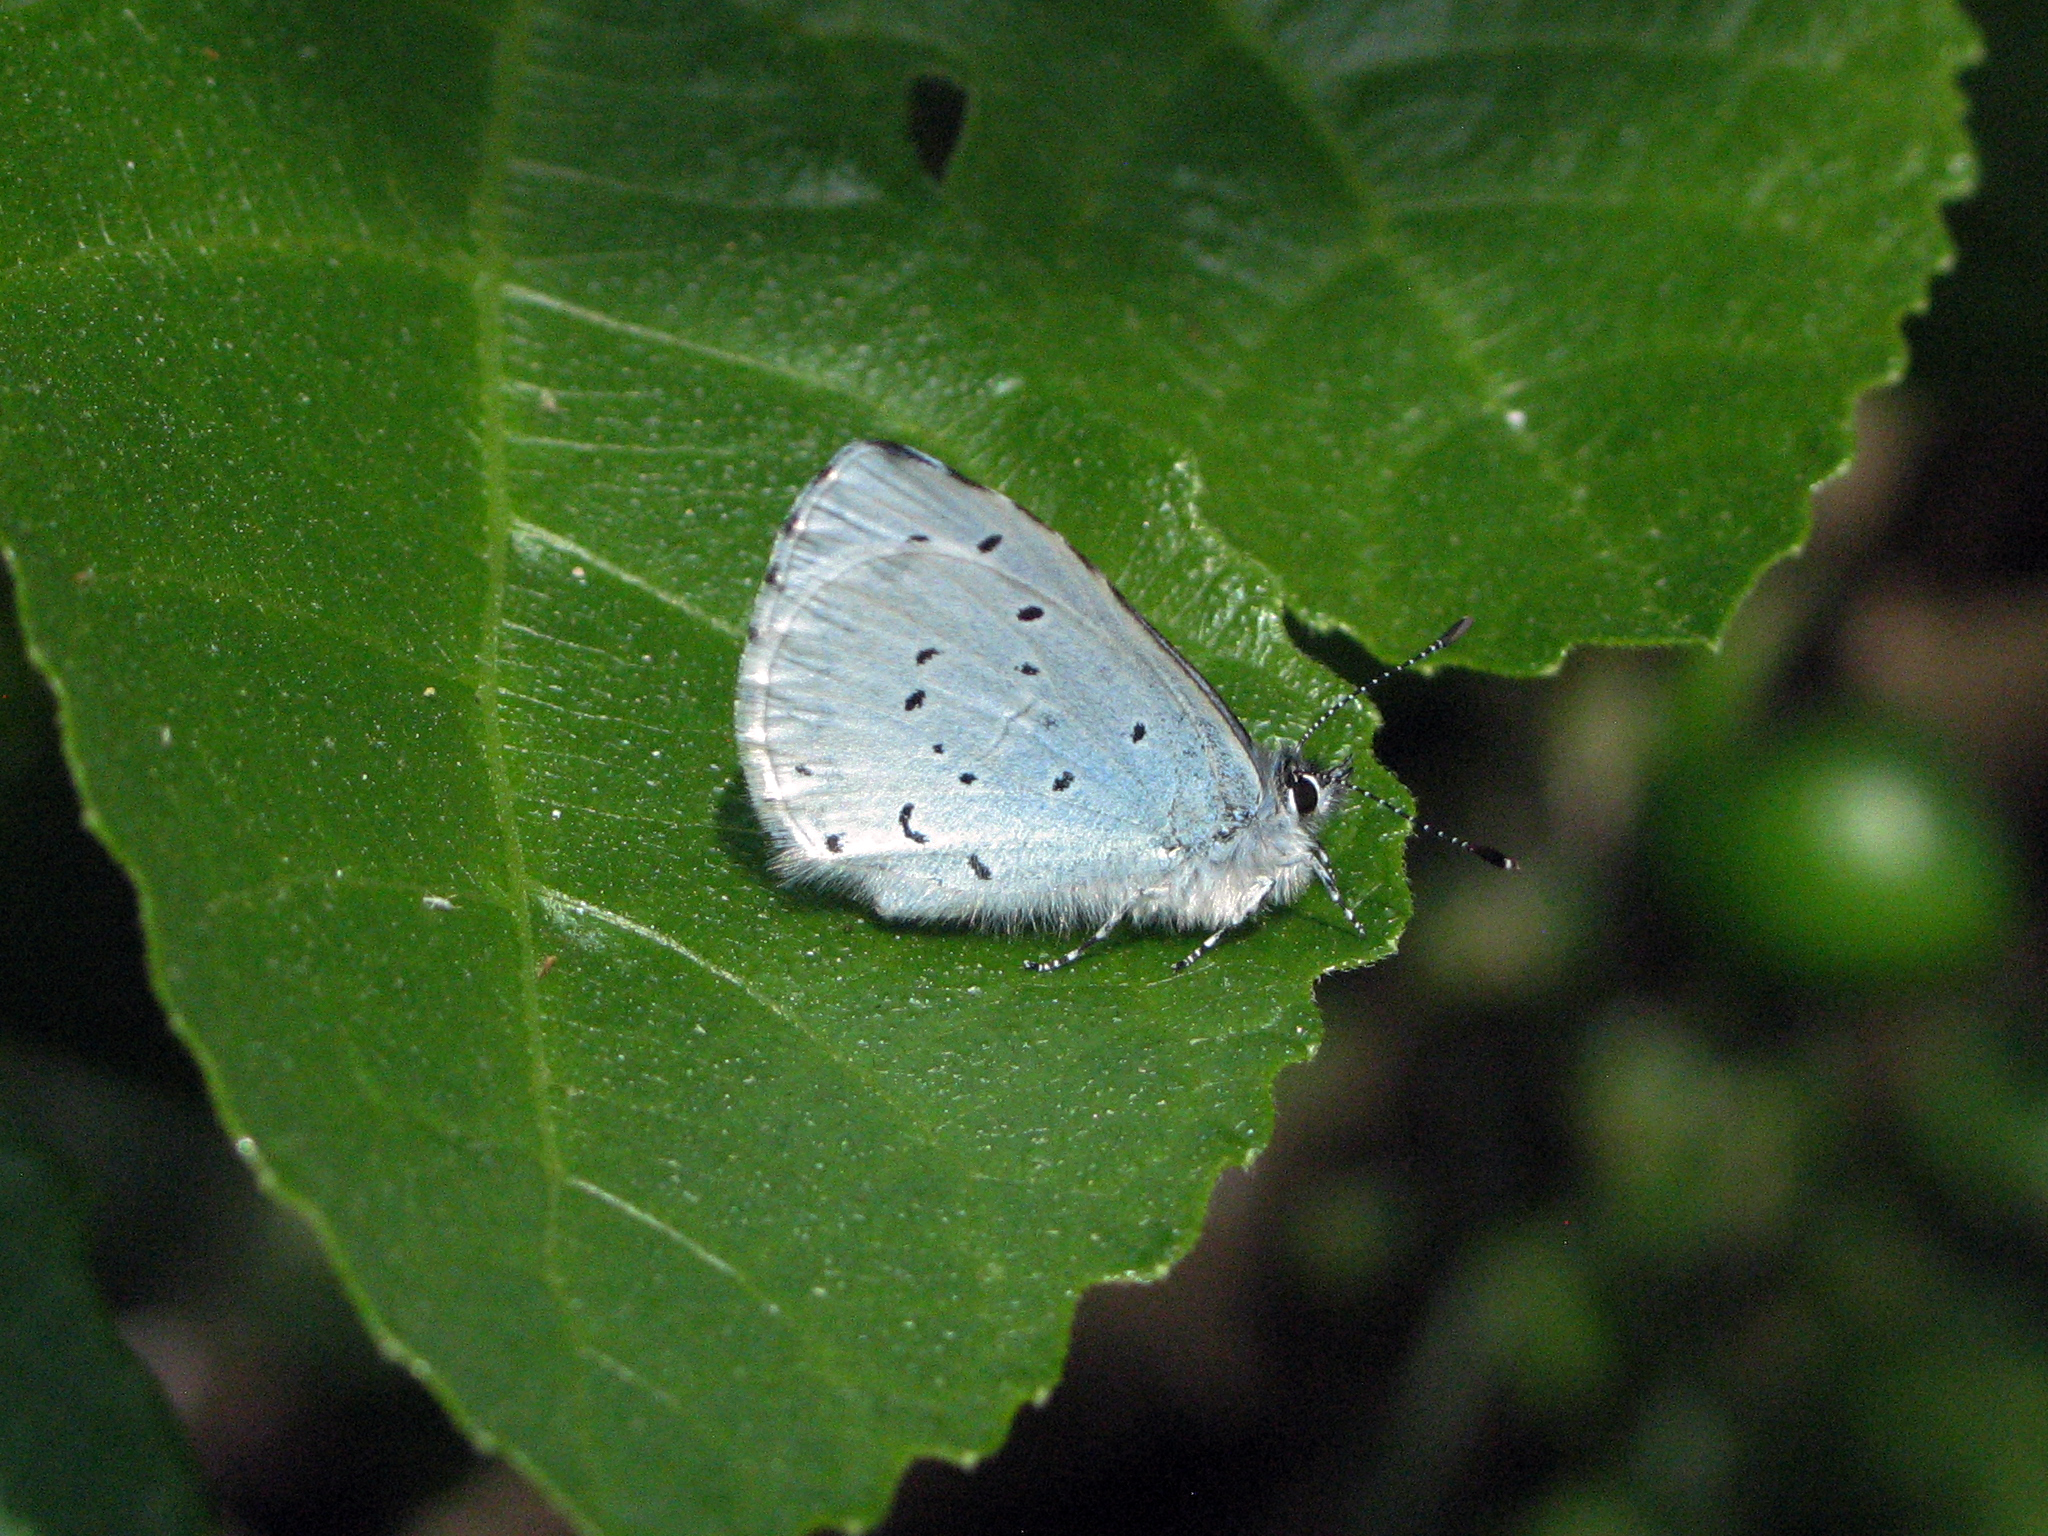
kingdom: Animalia
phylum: Arthropoda
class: Insecta
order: Lepidoptera
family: Lycaenidae
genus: Celastrina
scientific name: Celastrina argiolus
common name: Holly blue
